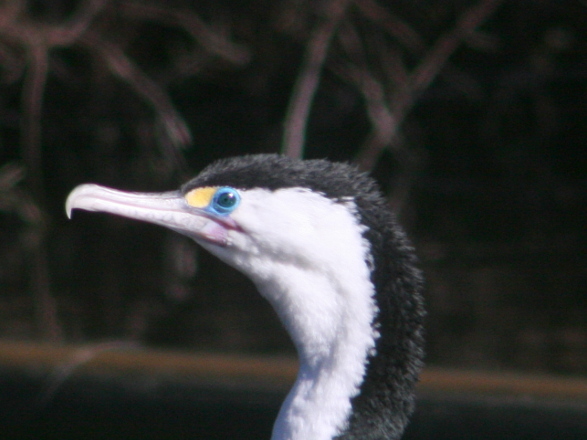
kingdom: Animalia
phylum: Chordata
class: Aves
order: Suliformes
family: Phalacrocoracidae
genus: Phalacrocorax
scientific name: Phalacrocorax varius
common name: Pied cormorant
